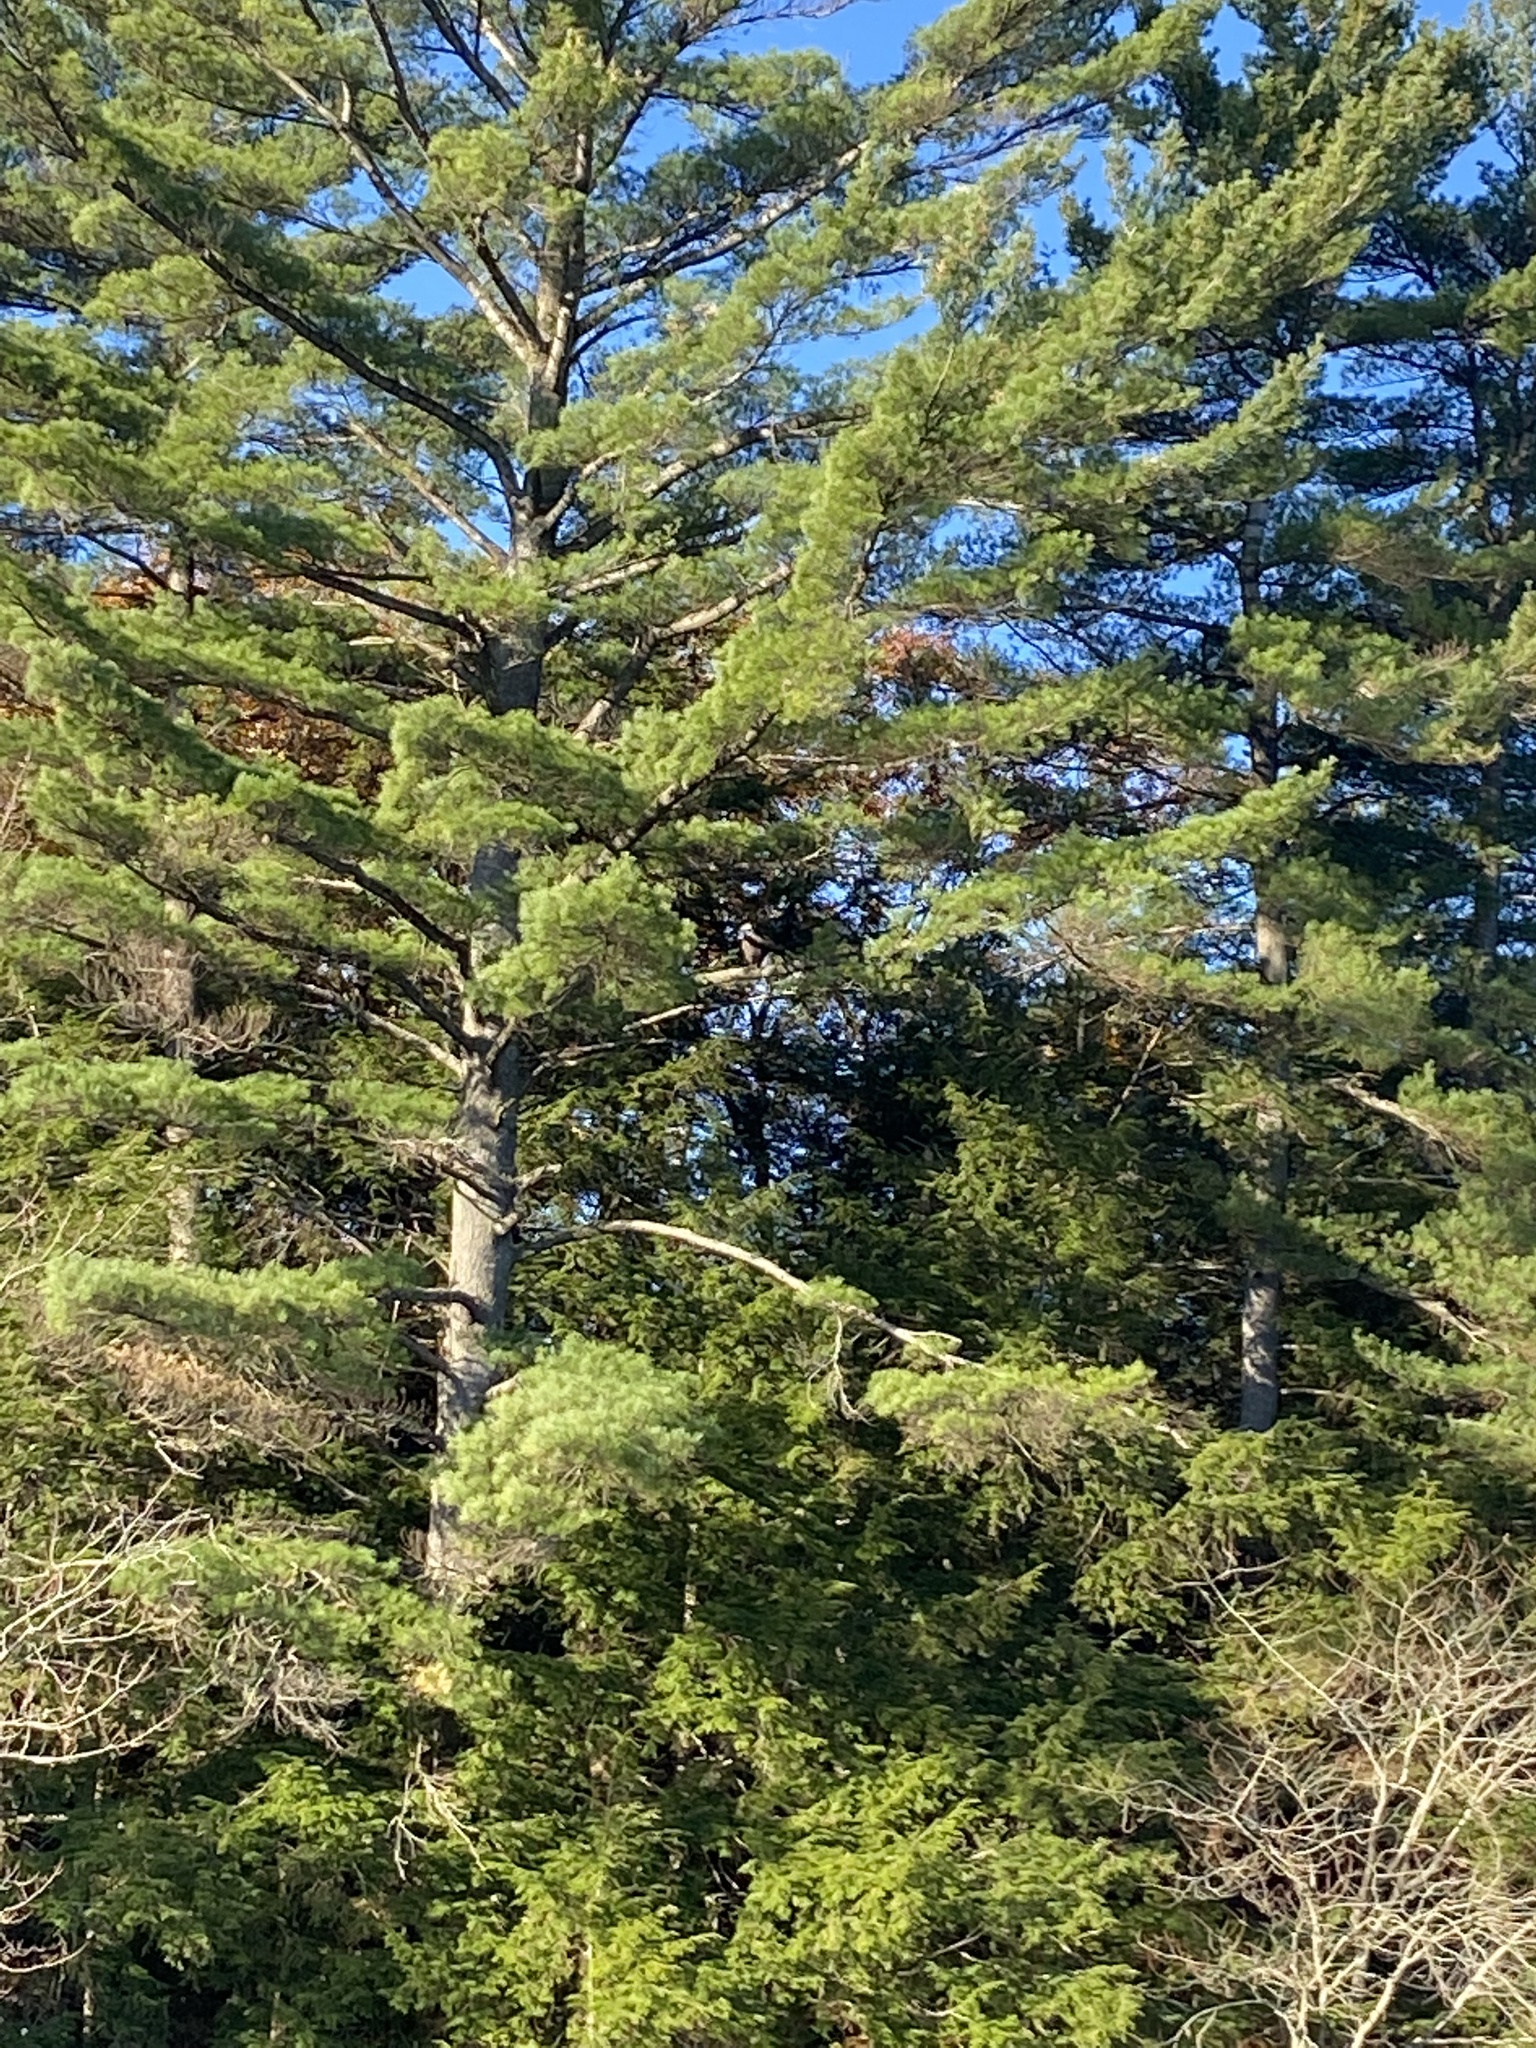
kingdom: Animalia
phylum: Chordata
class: Aves
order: Accipitriformes
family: Accipitridae
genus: Haliaeetus
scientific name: Haliaeetus leucocephalus
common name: Bald eagle
